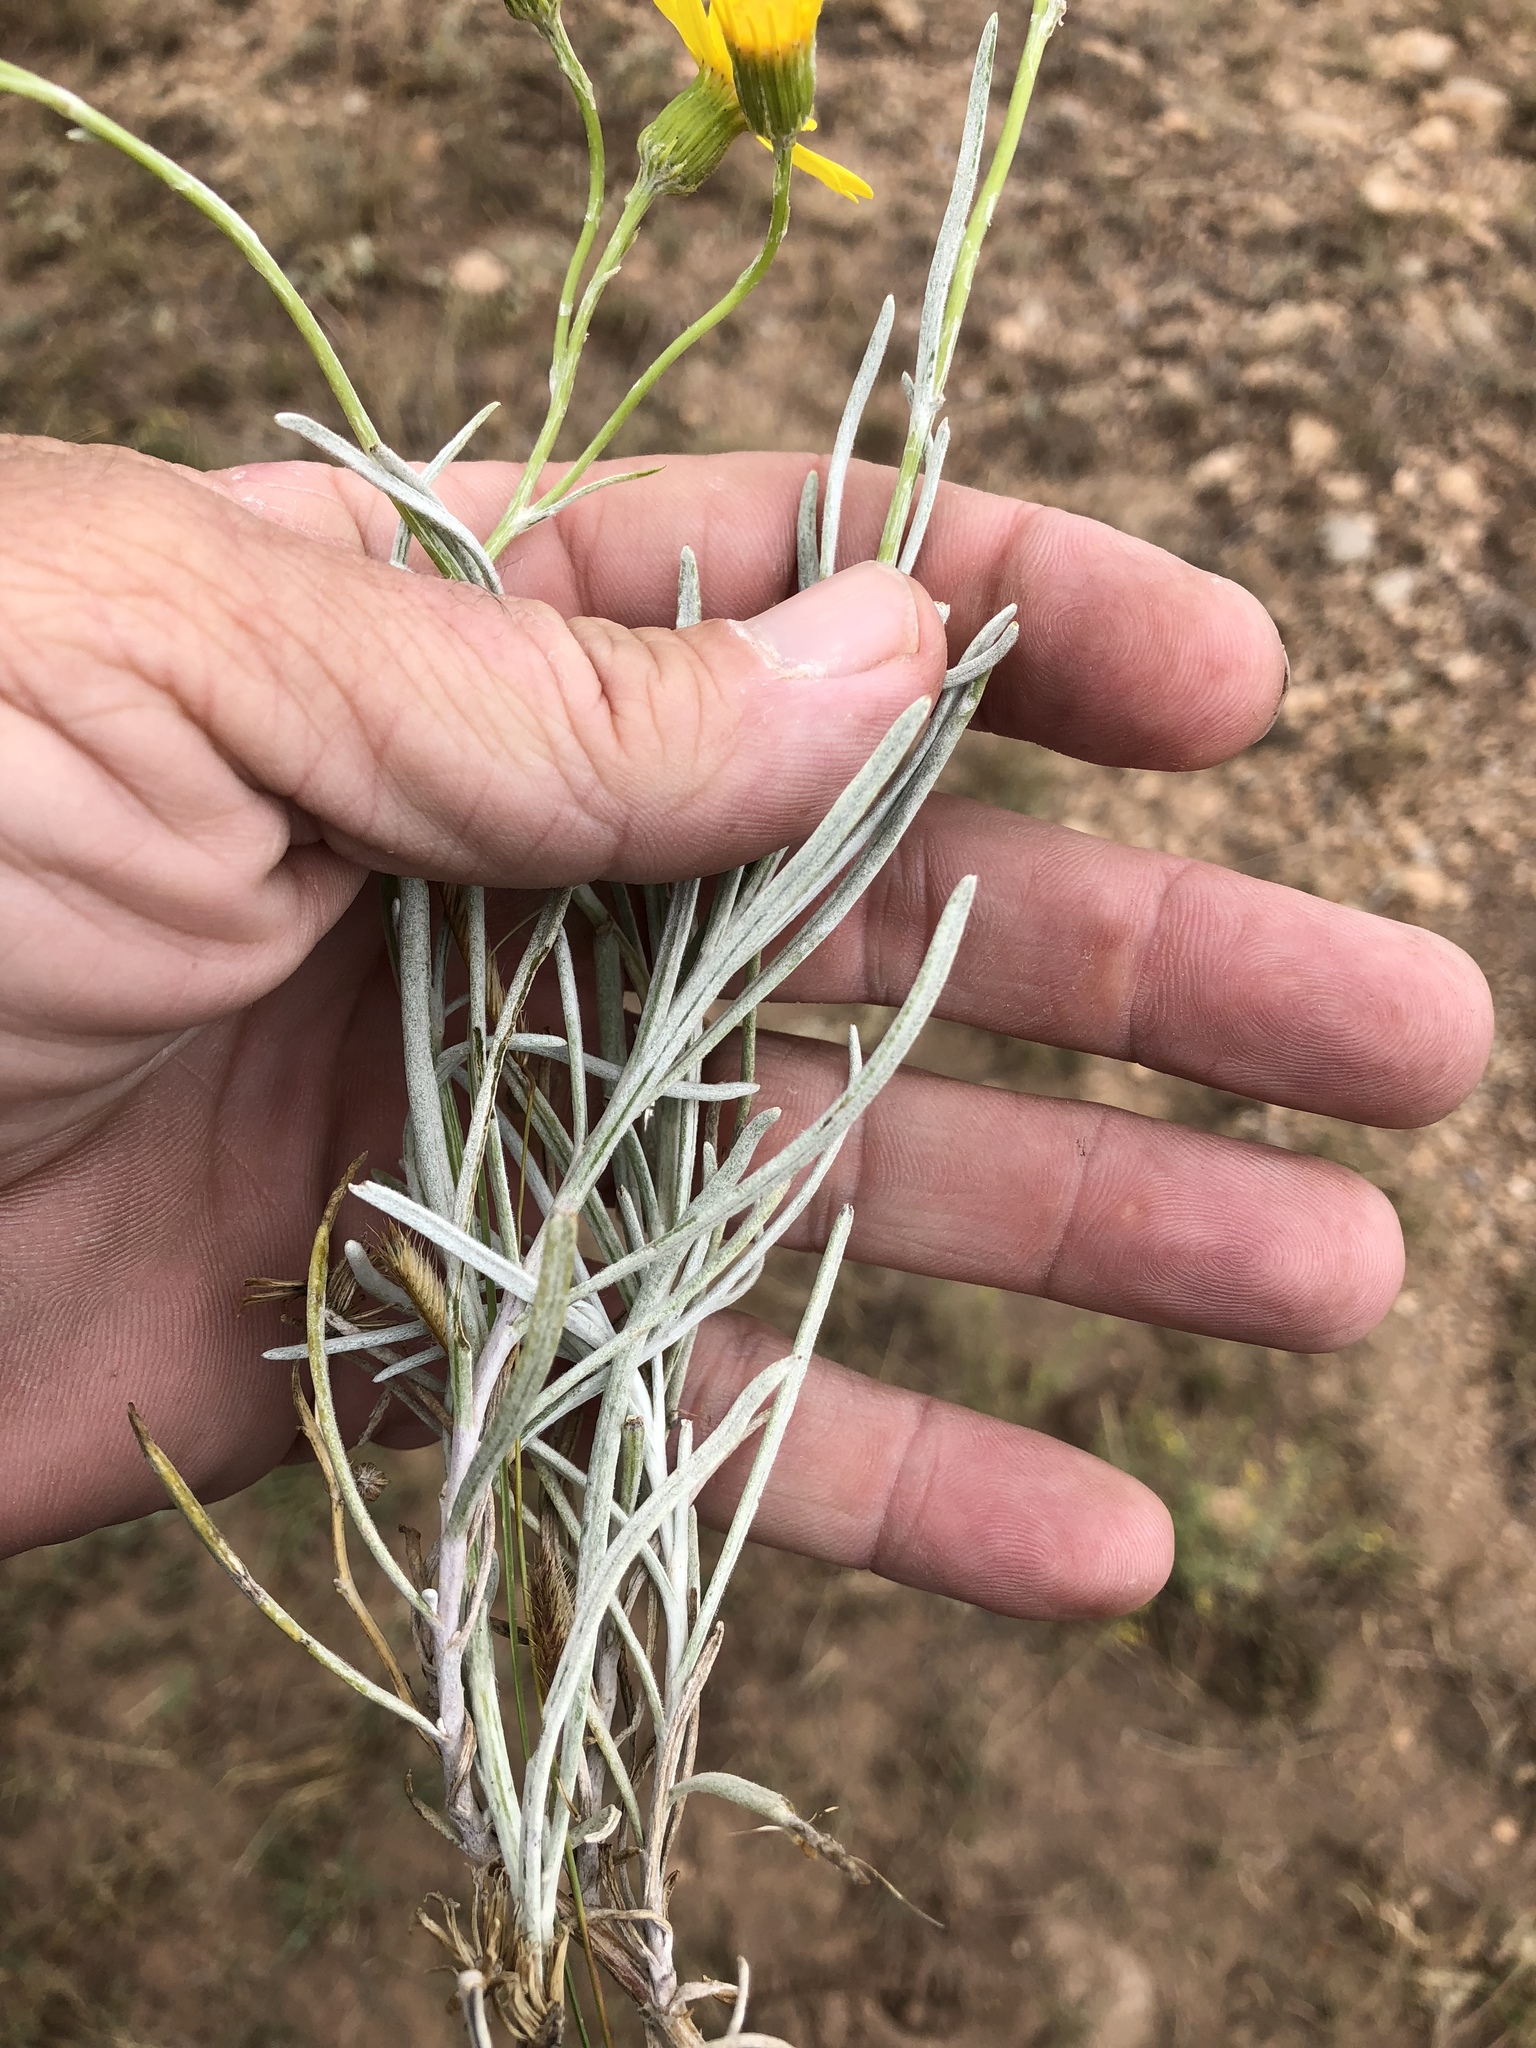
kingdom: Plantae
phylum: Tracheophyta
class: Magnoliopsida
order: Asterales
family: Asteraceae
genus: Senecio
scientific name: Senecio flaccidus
